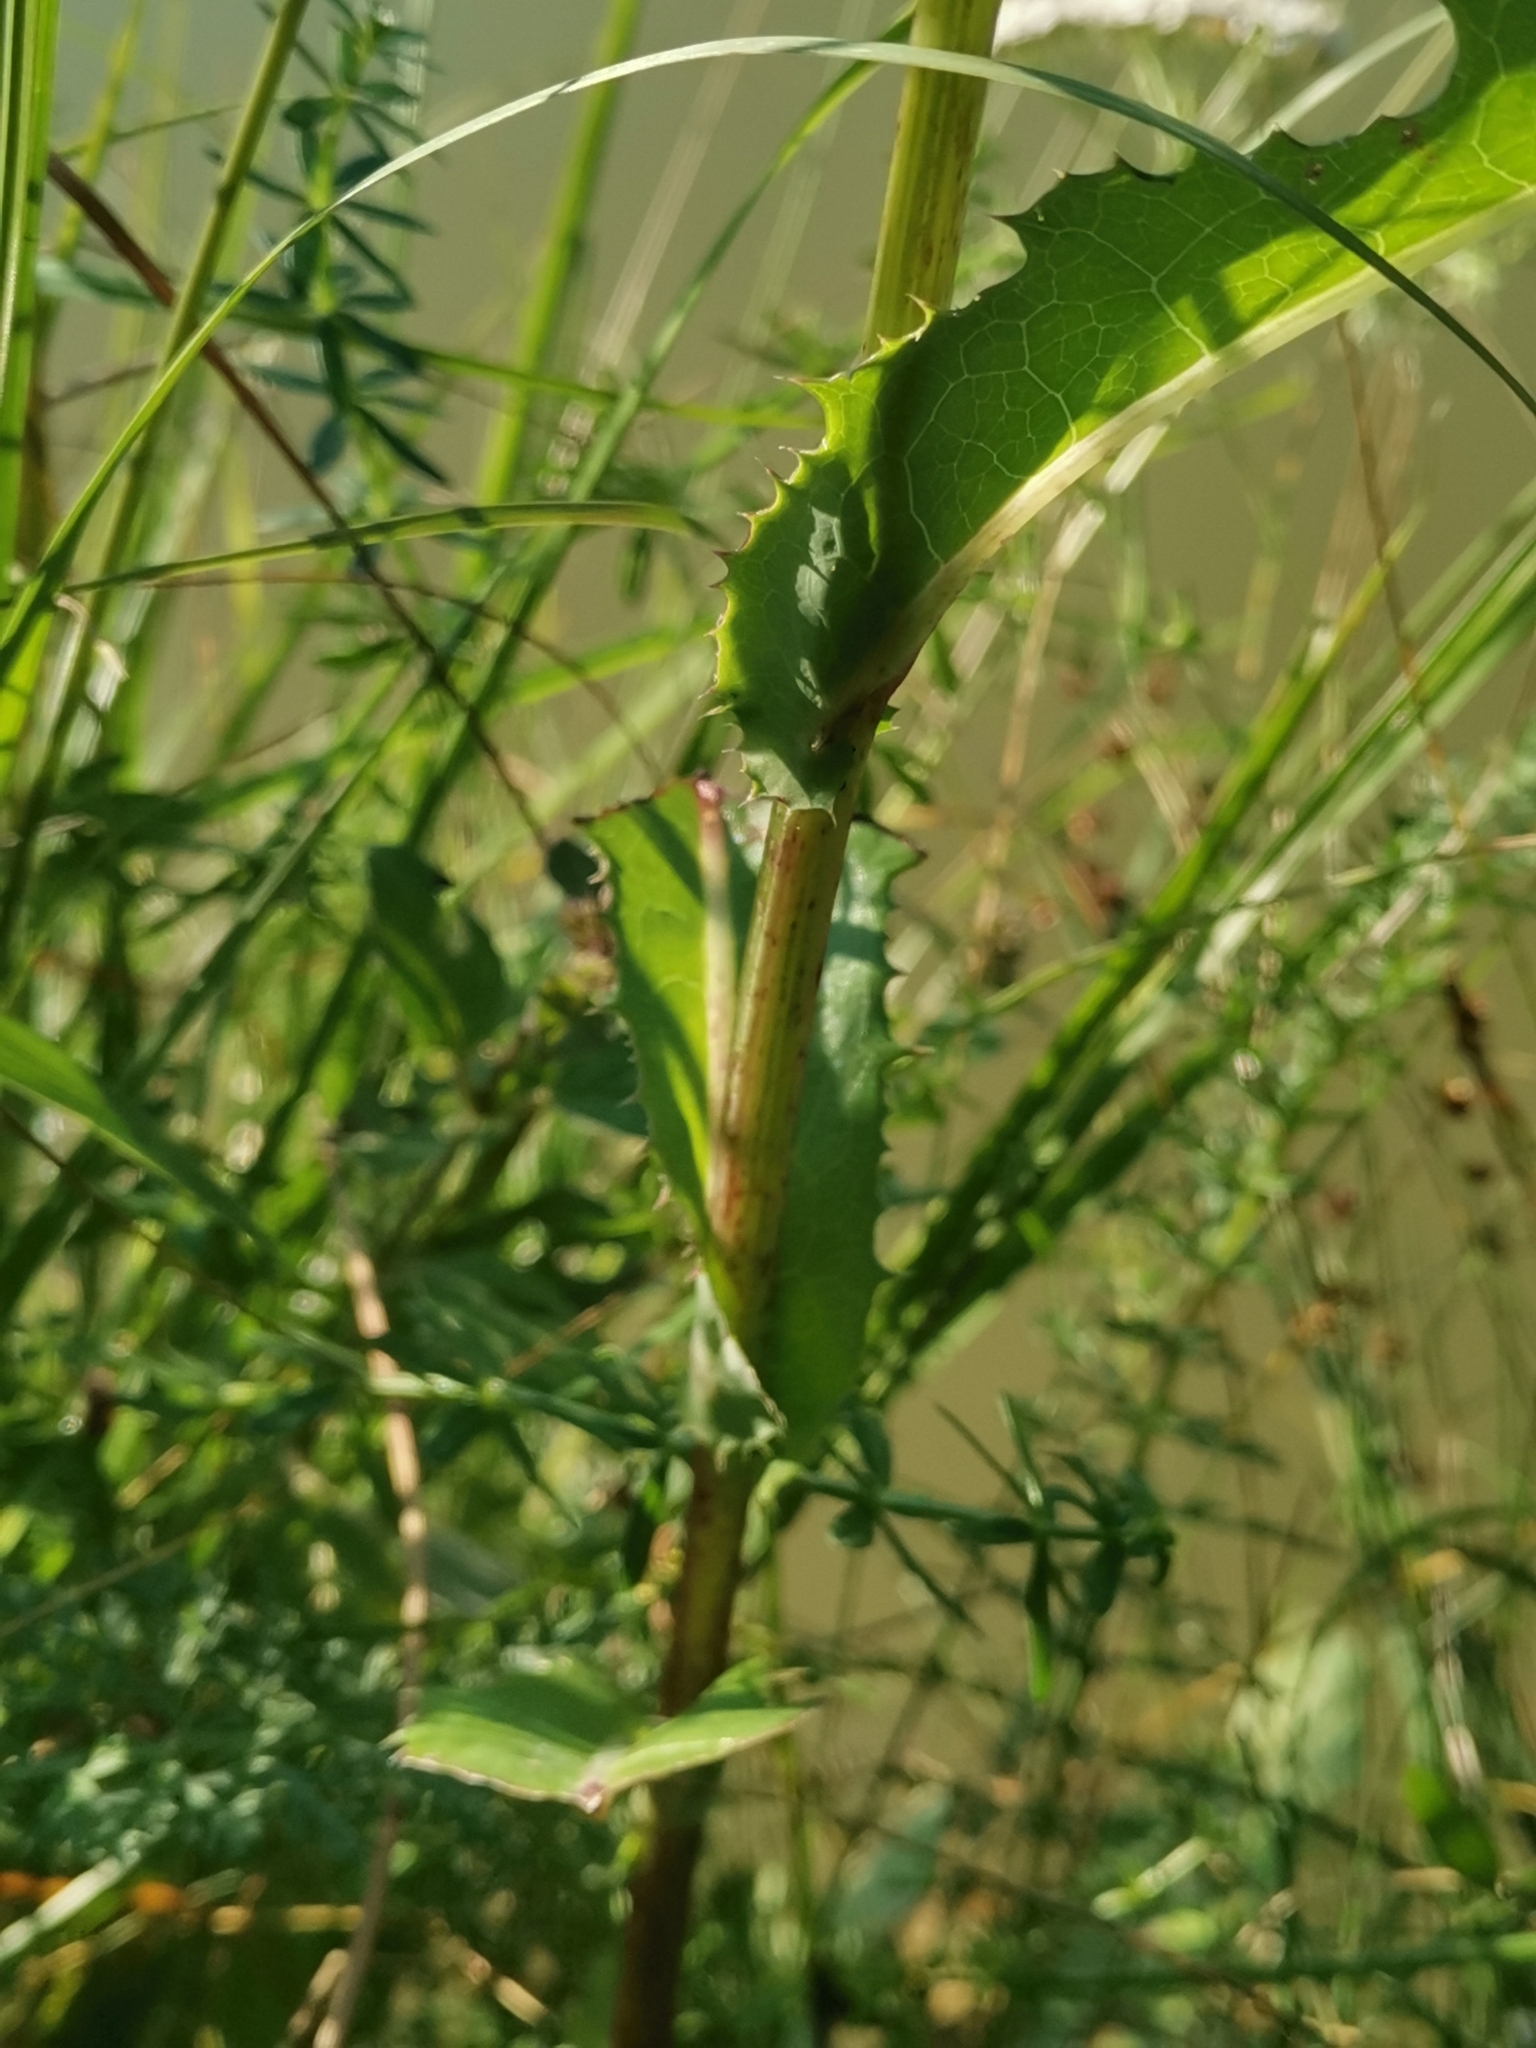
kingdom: Plantae
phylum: Tracheophyta
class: Magnoliopsida
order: Asterales
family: Asteraceae
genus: Sonchus
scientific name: Sonchus arvensis
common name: Perennial sow-thistle
